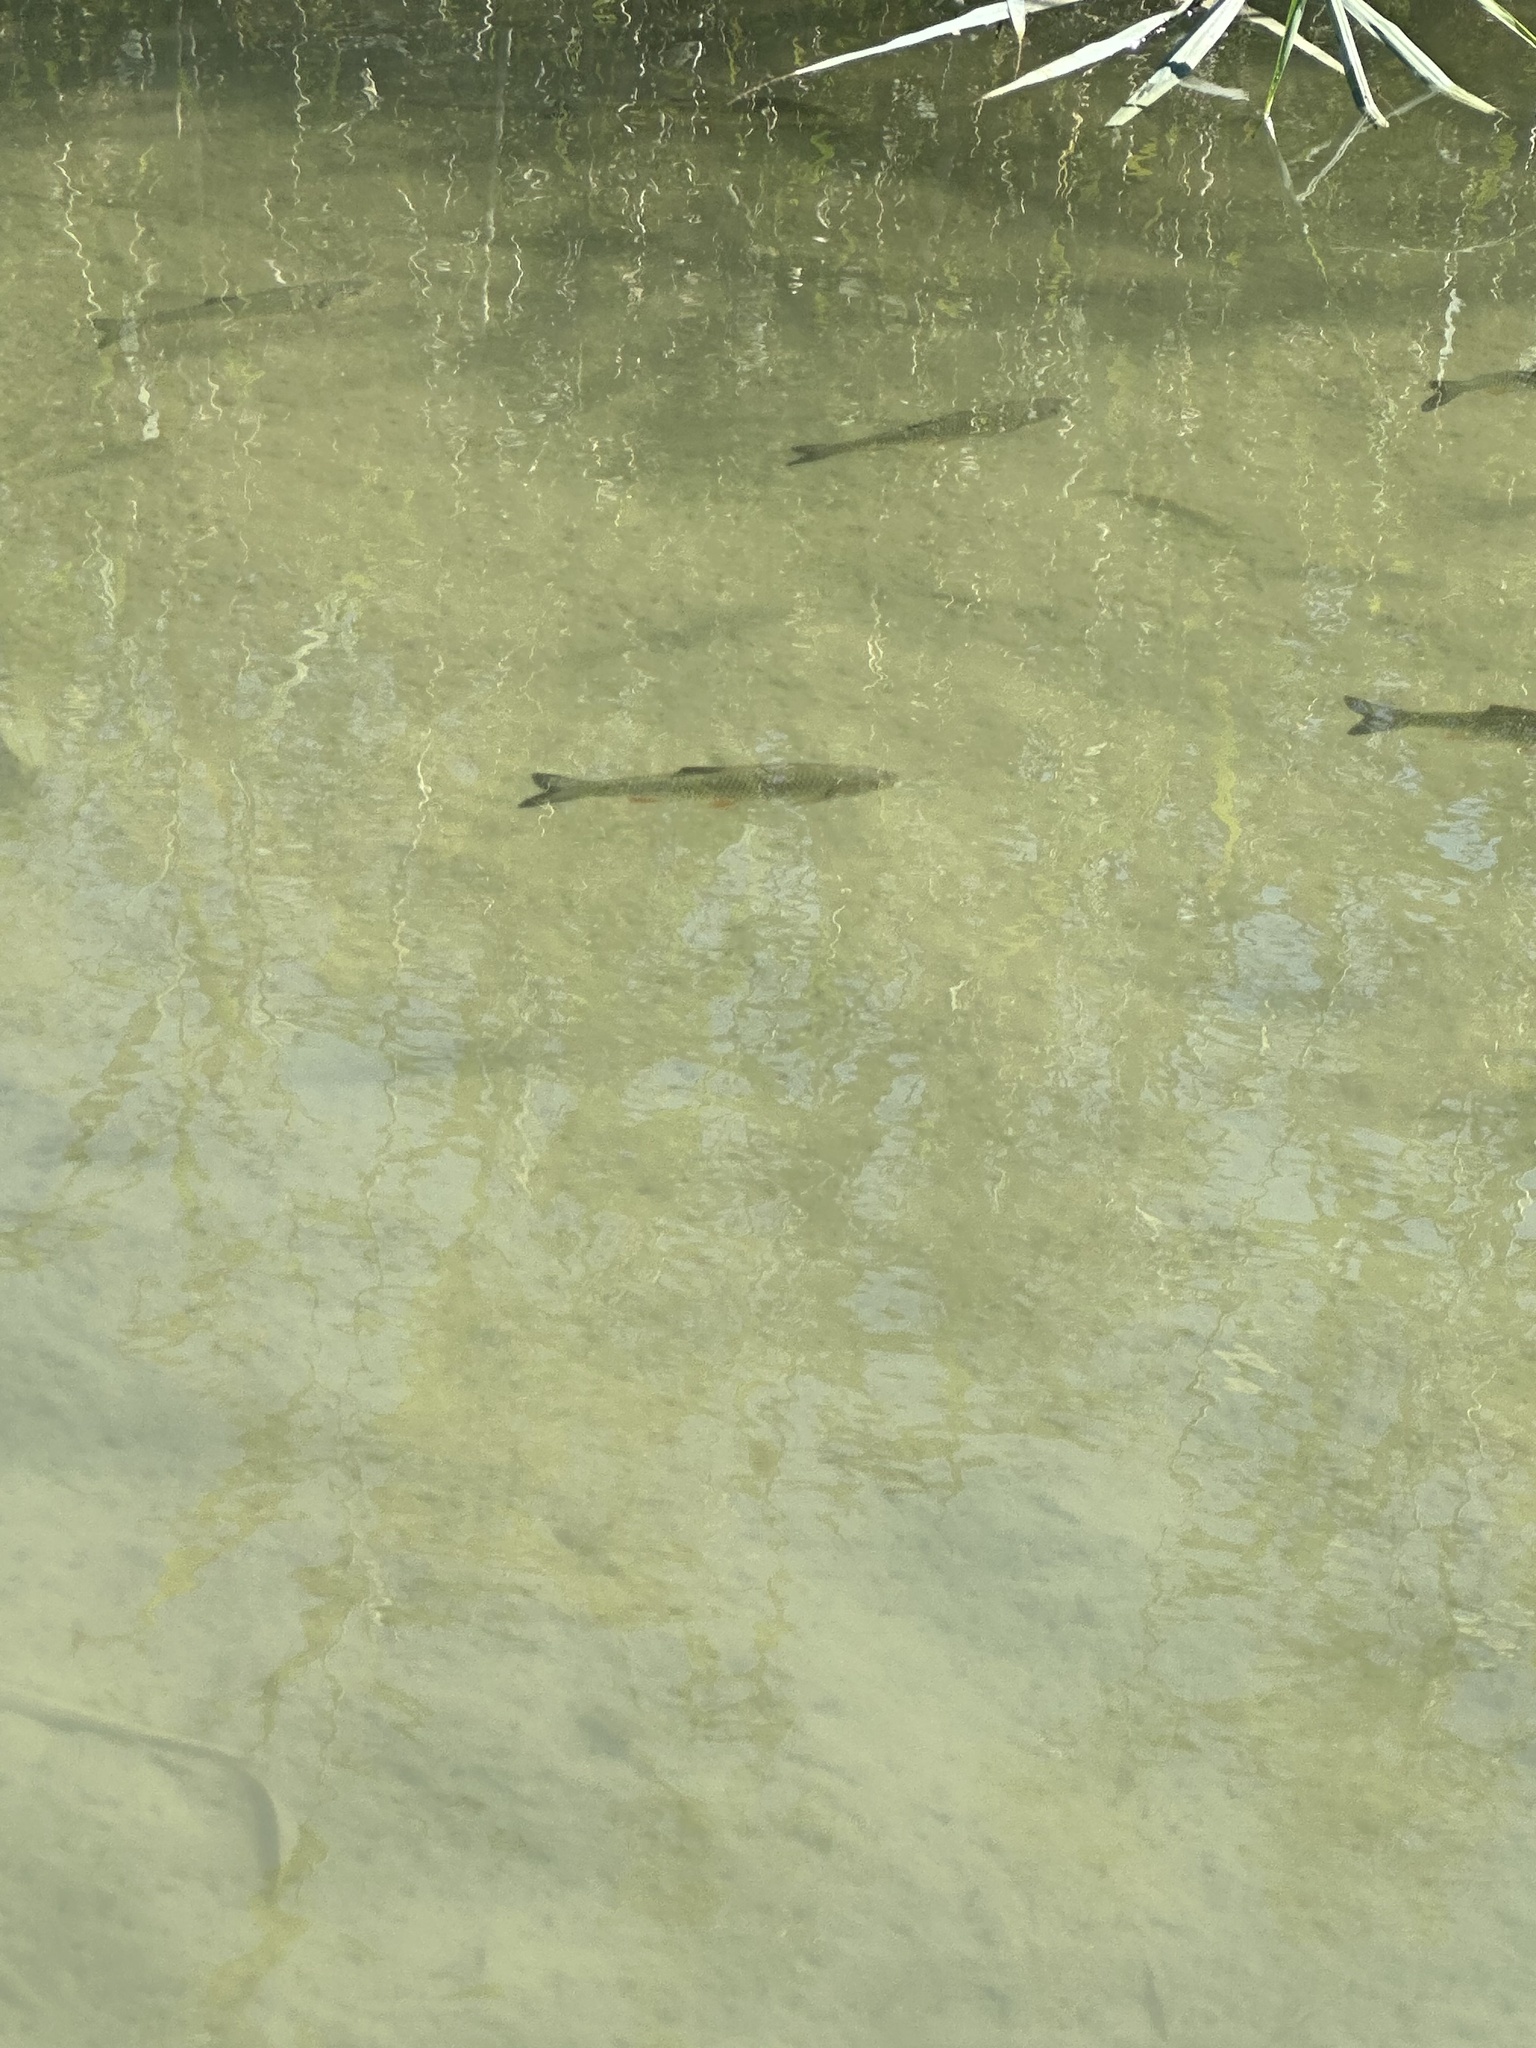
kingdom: Animalia
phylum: Chordata
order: Cypriniformes
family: Cyprinidae
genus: Squalius
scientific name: Squalius cephalus
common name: Chub
